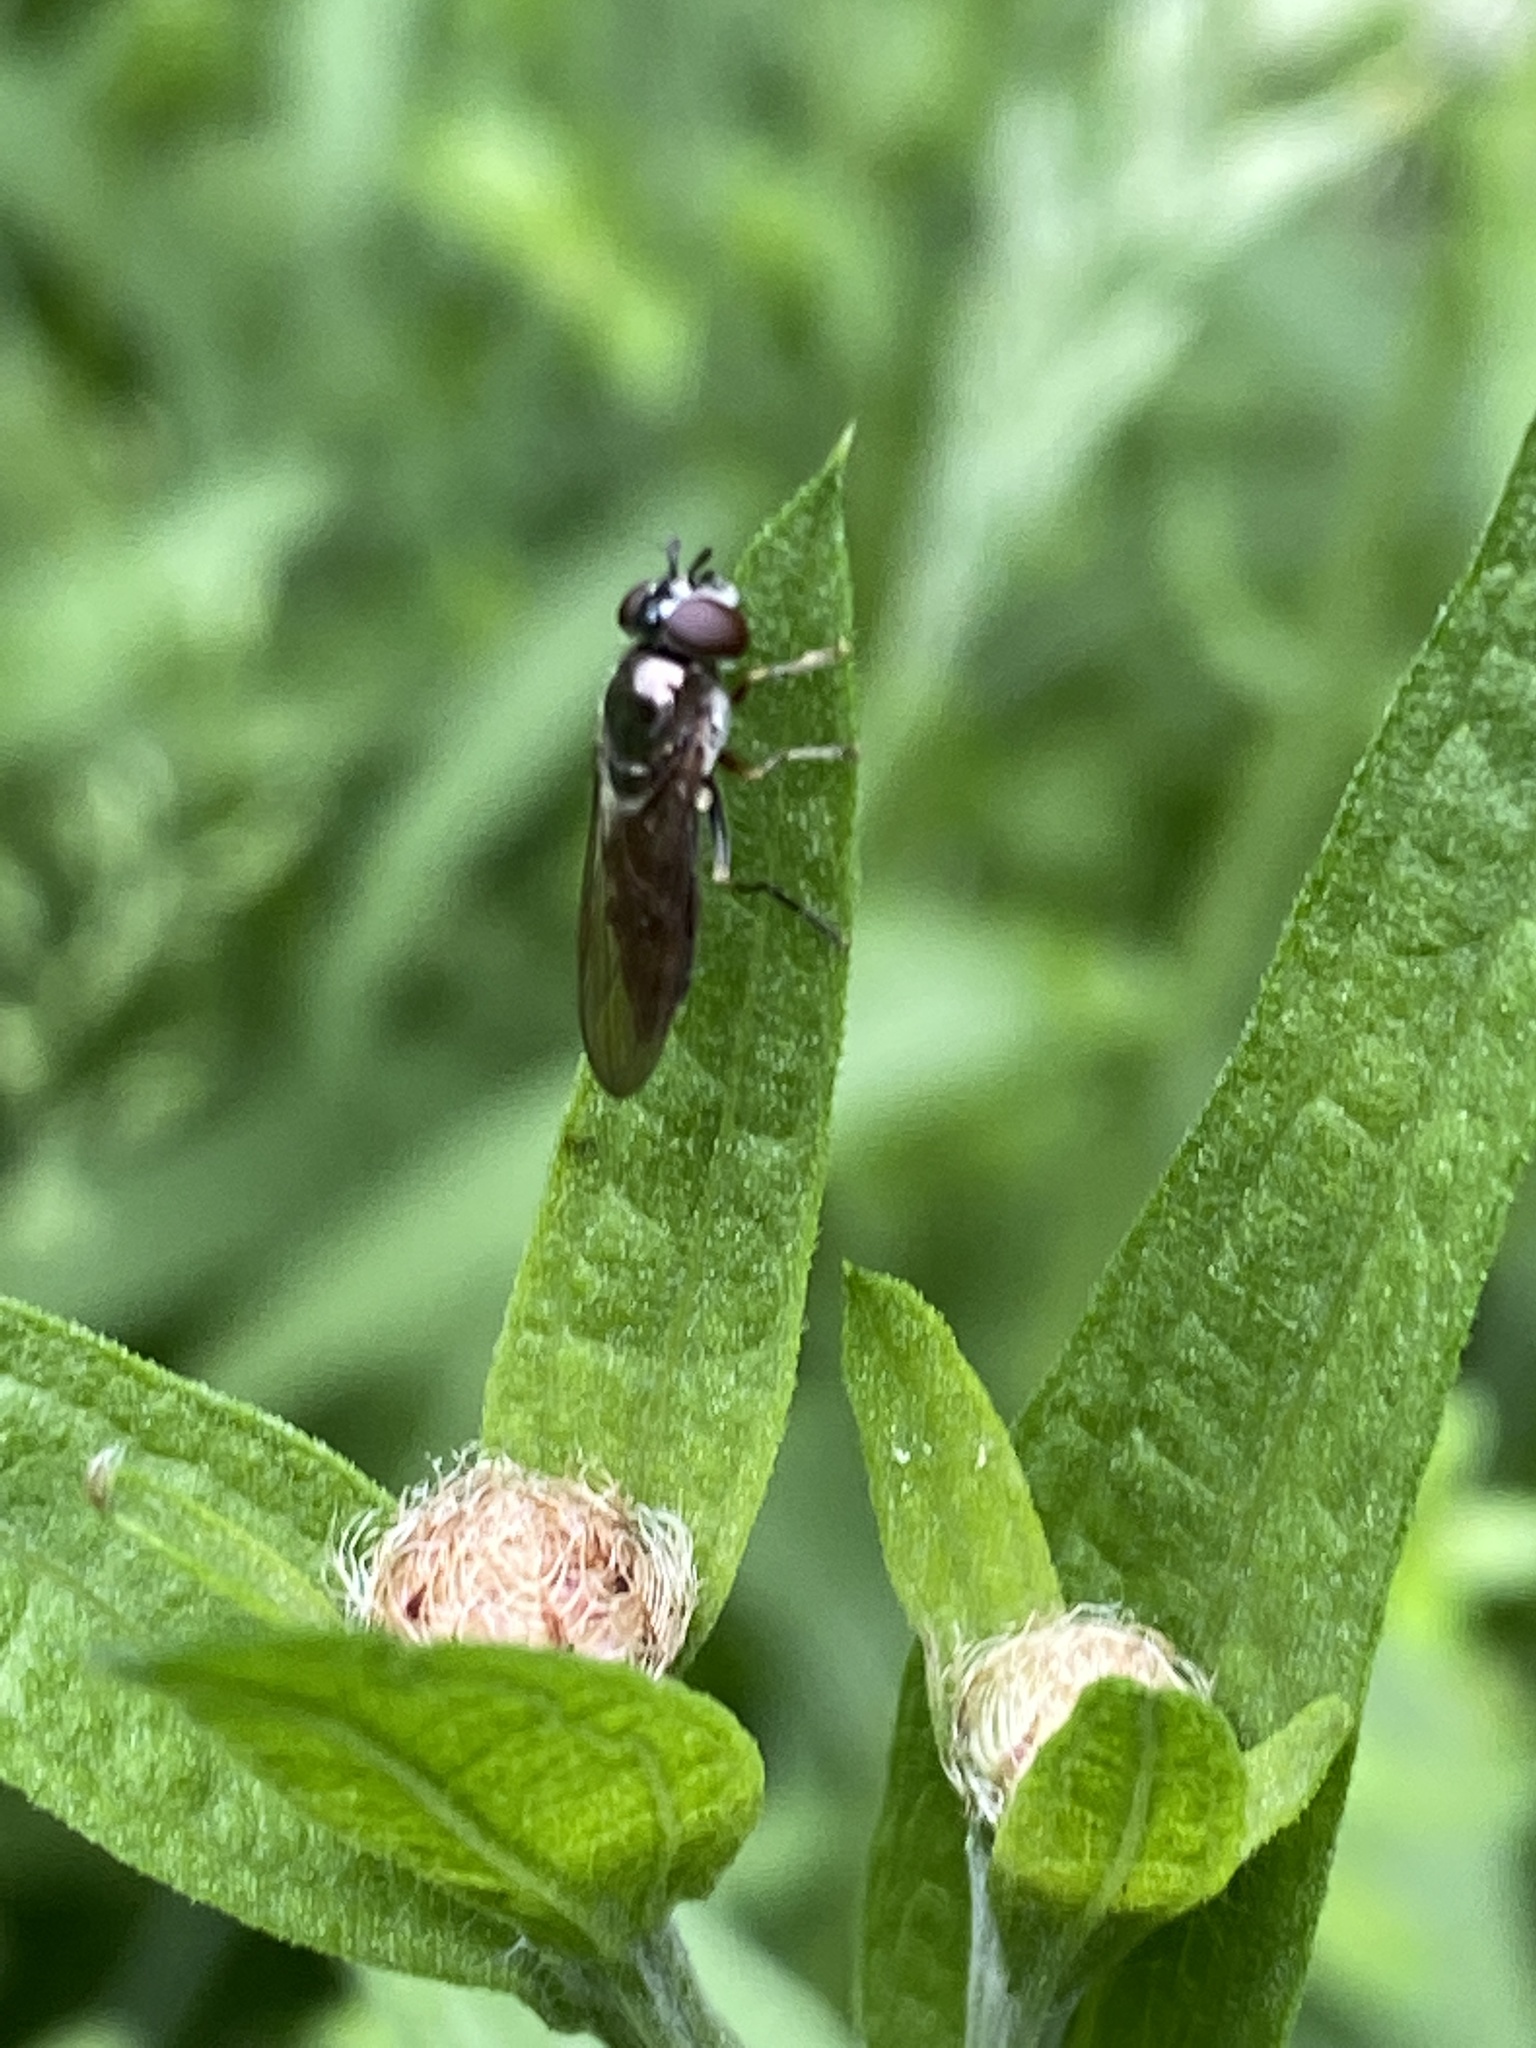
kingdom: Animalia
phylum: Arthropoda
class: Insecta
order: Diptera
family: Syrphidae
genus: Platycheirus
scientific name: Platycheirus
